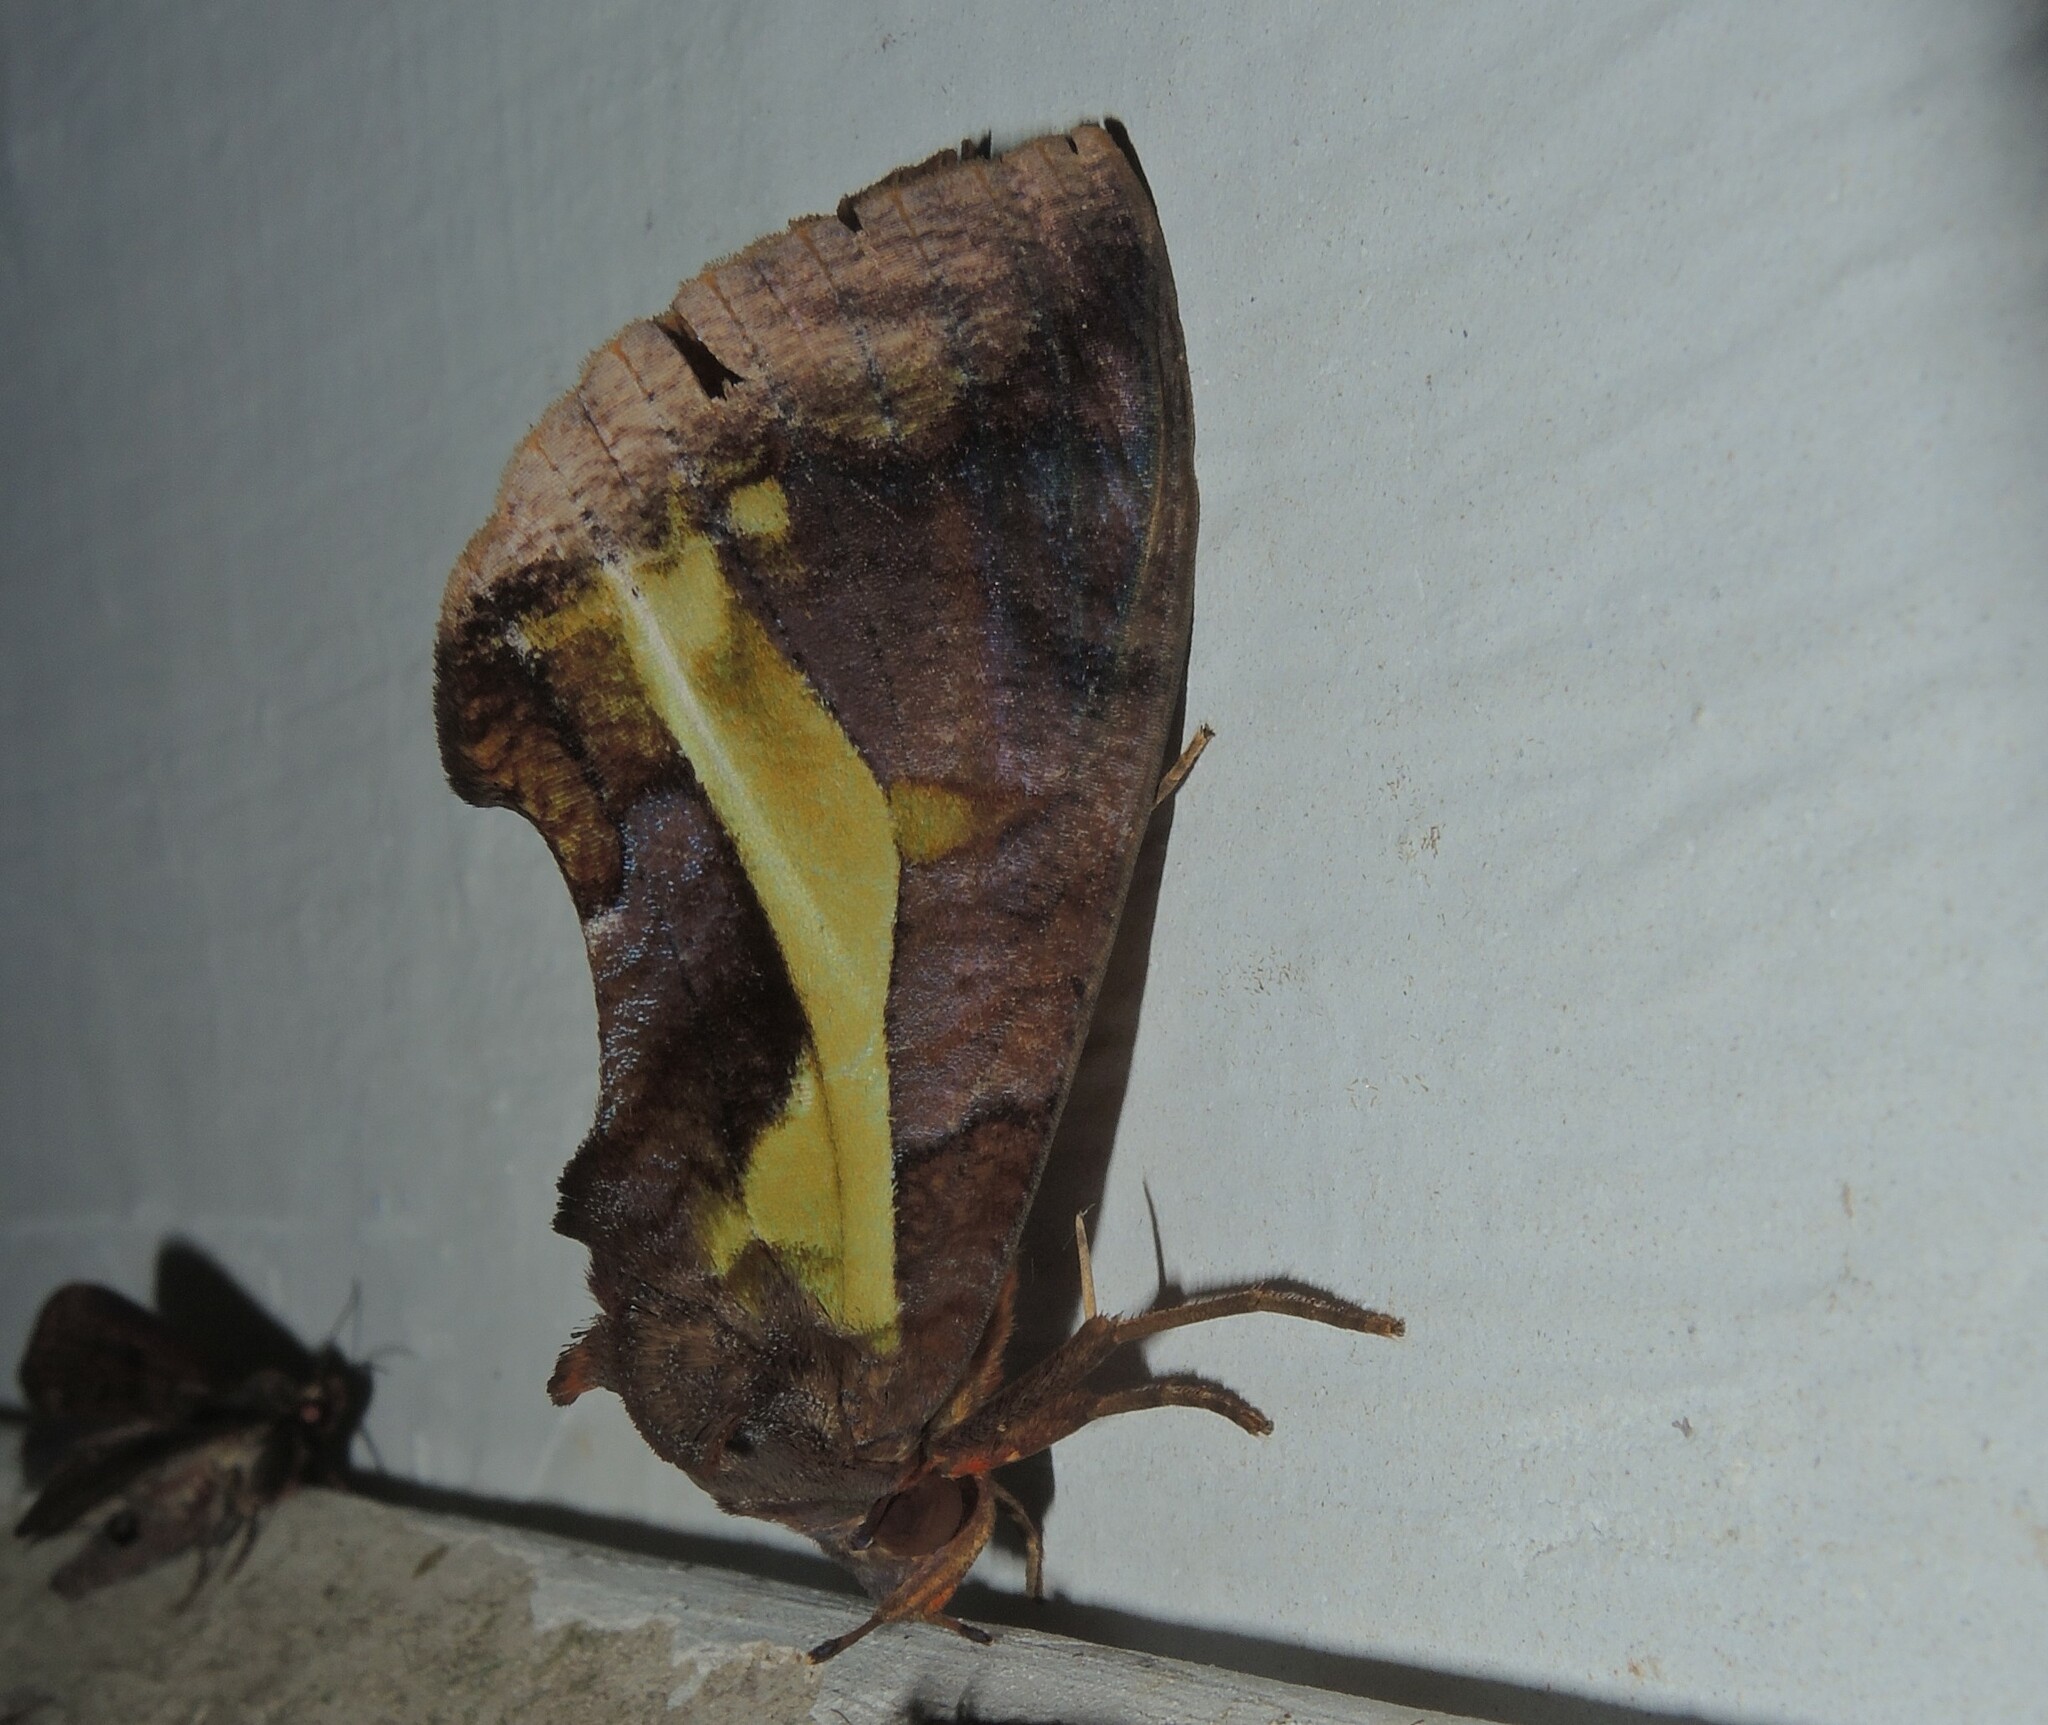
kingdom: Animalia
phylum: Arthropoda
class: Insecta
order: Lepidoptera
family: Erebidae
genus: Eudocima
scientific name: Eudocima homaena
